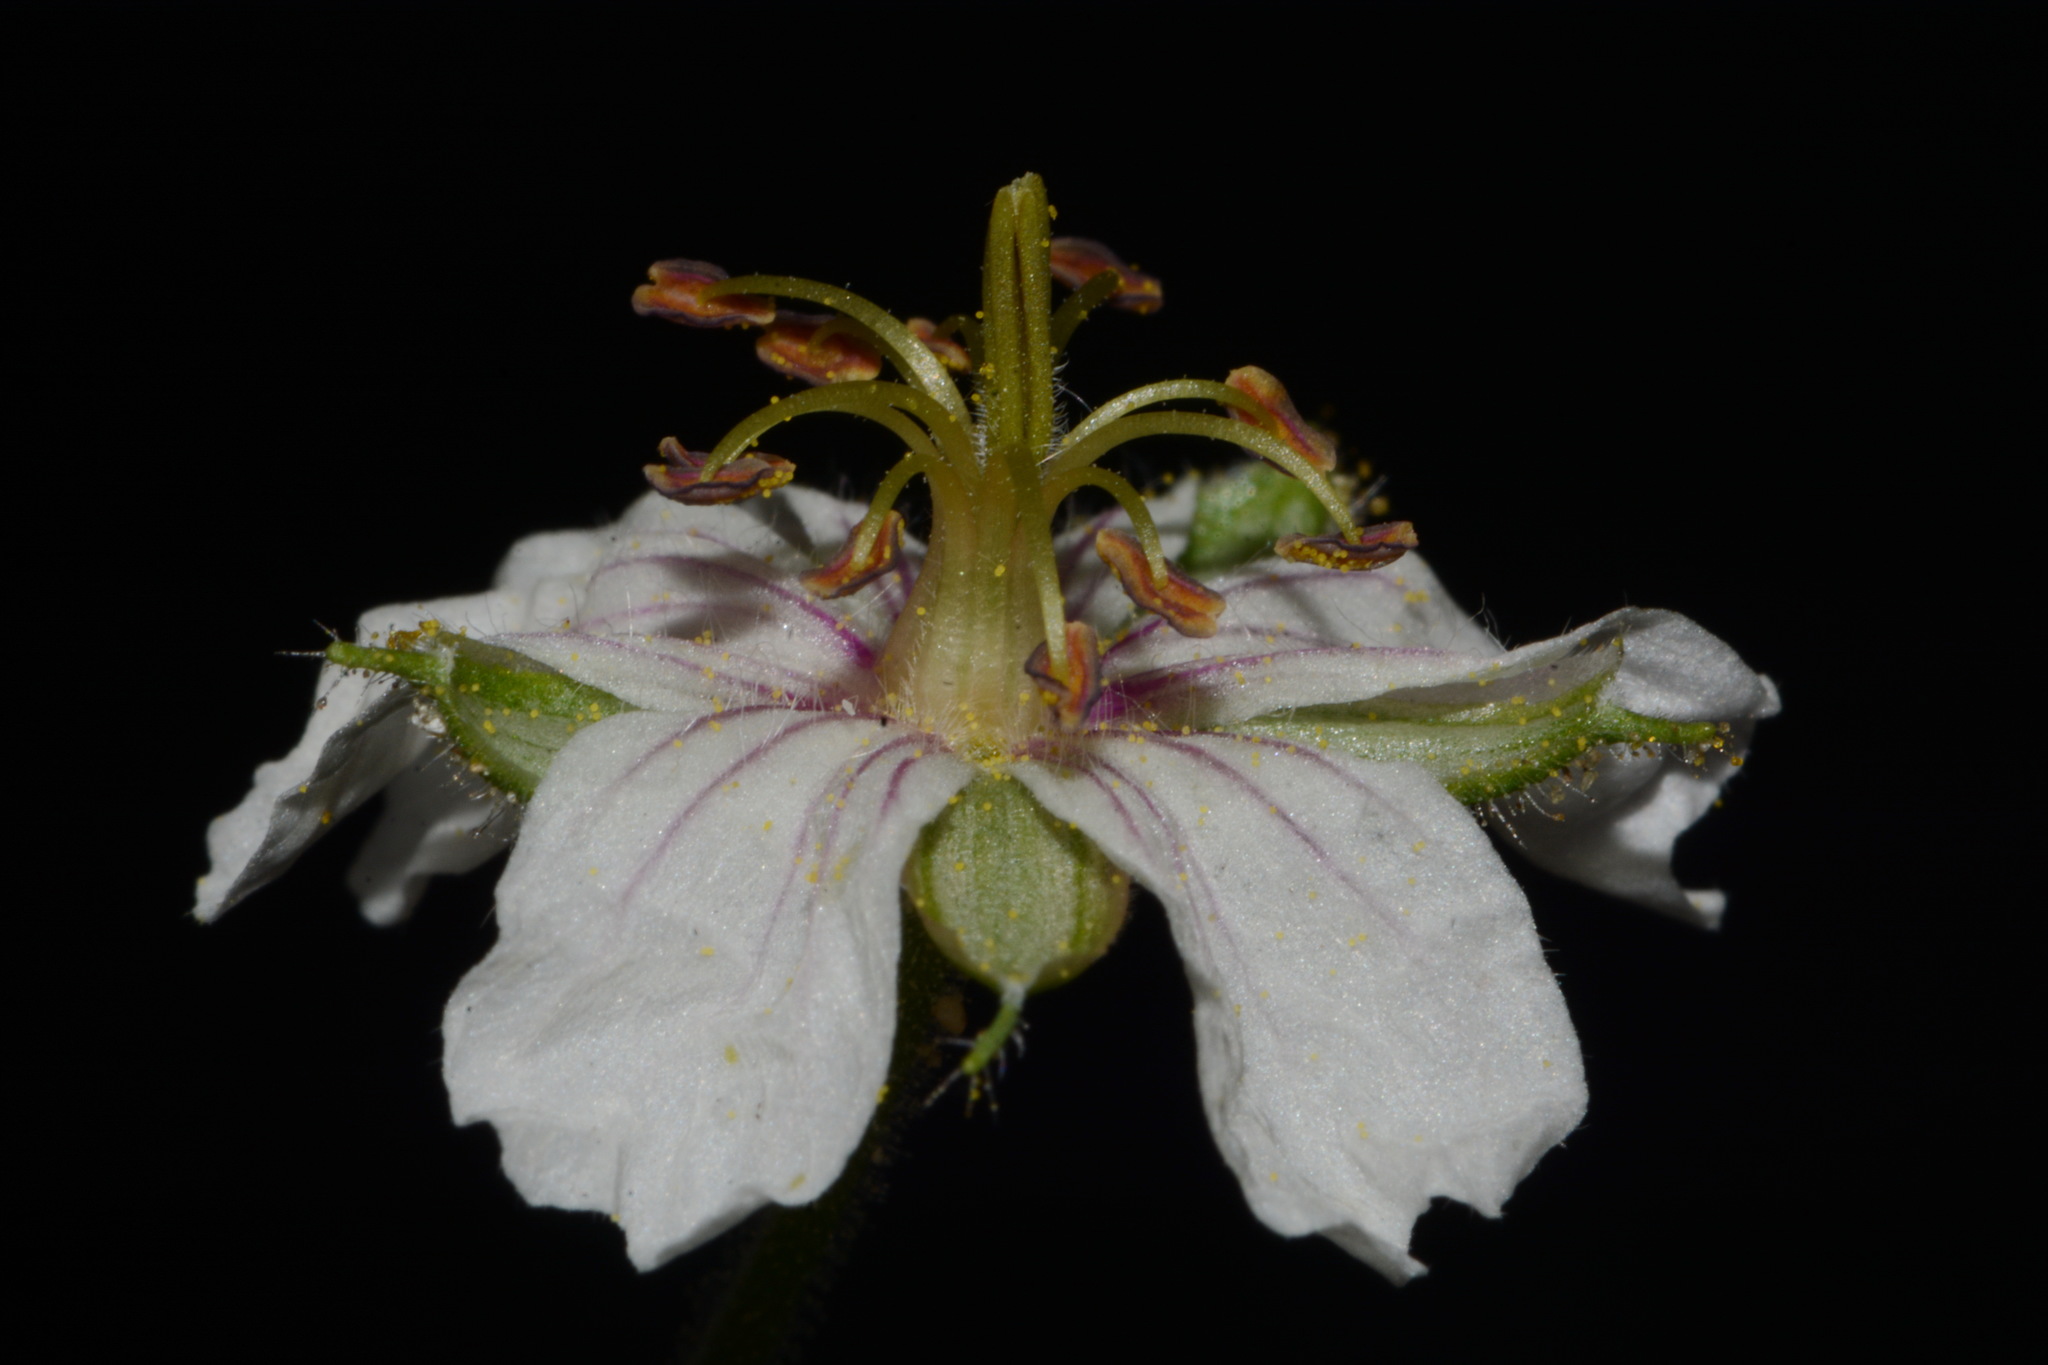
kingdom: Plantae
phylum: Tracheophyta
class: Magnoliopsida
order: Geraniales
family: Geraniaceae
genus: Geranium
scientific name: Geranium lentum
